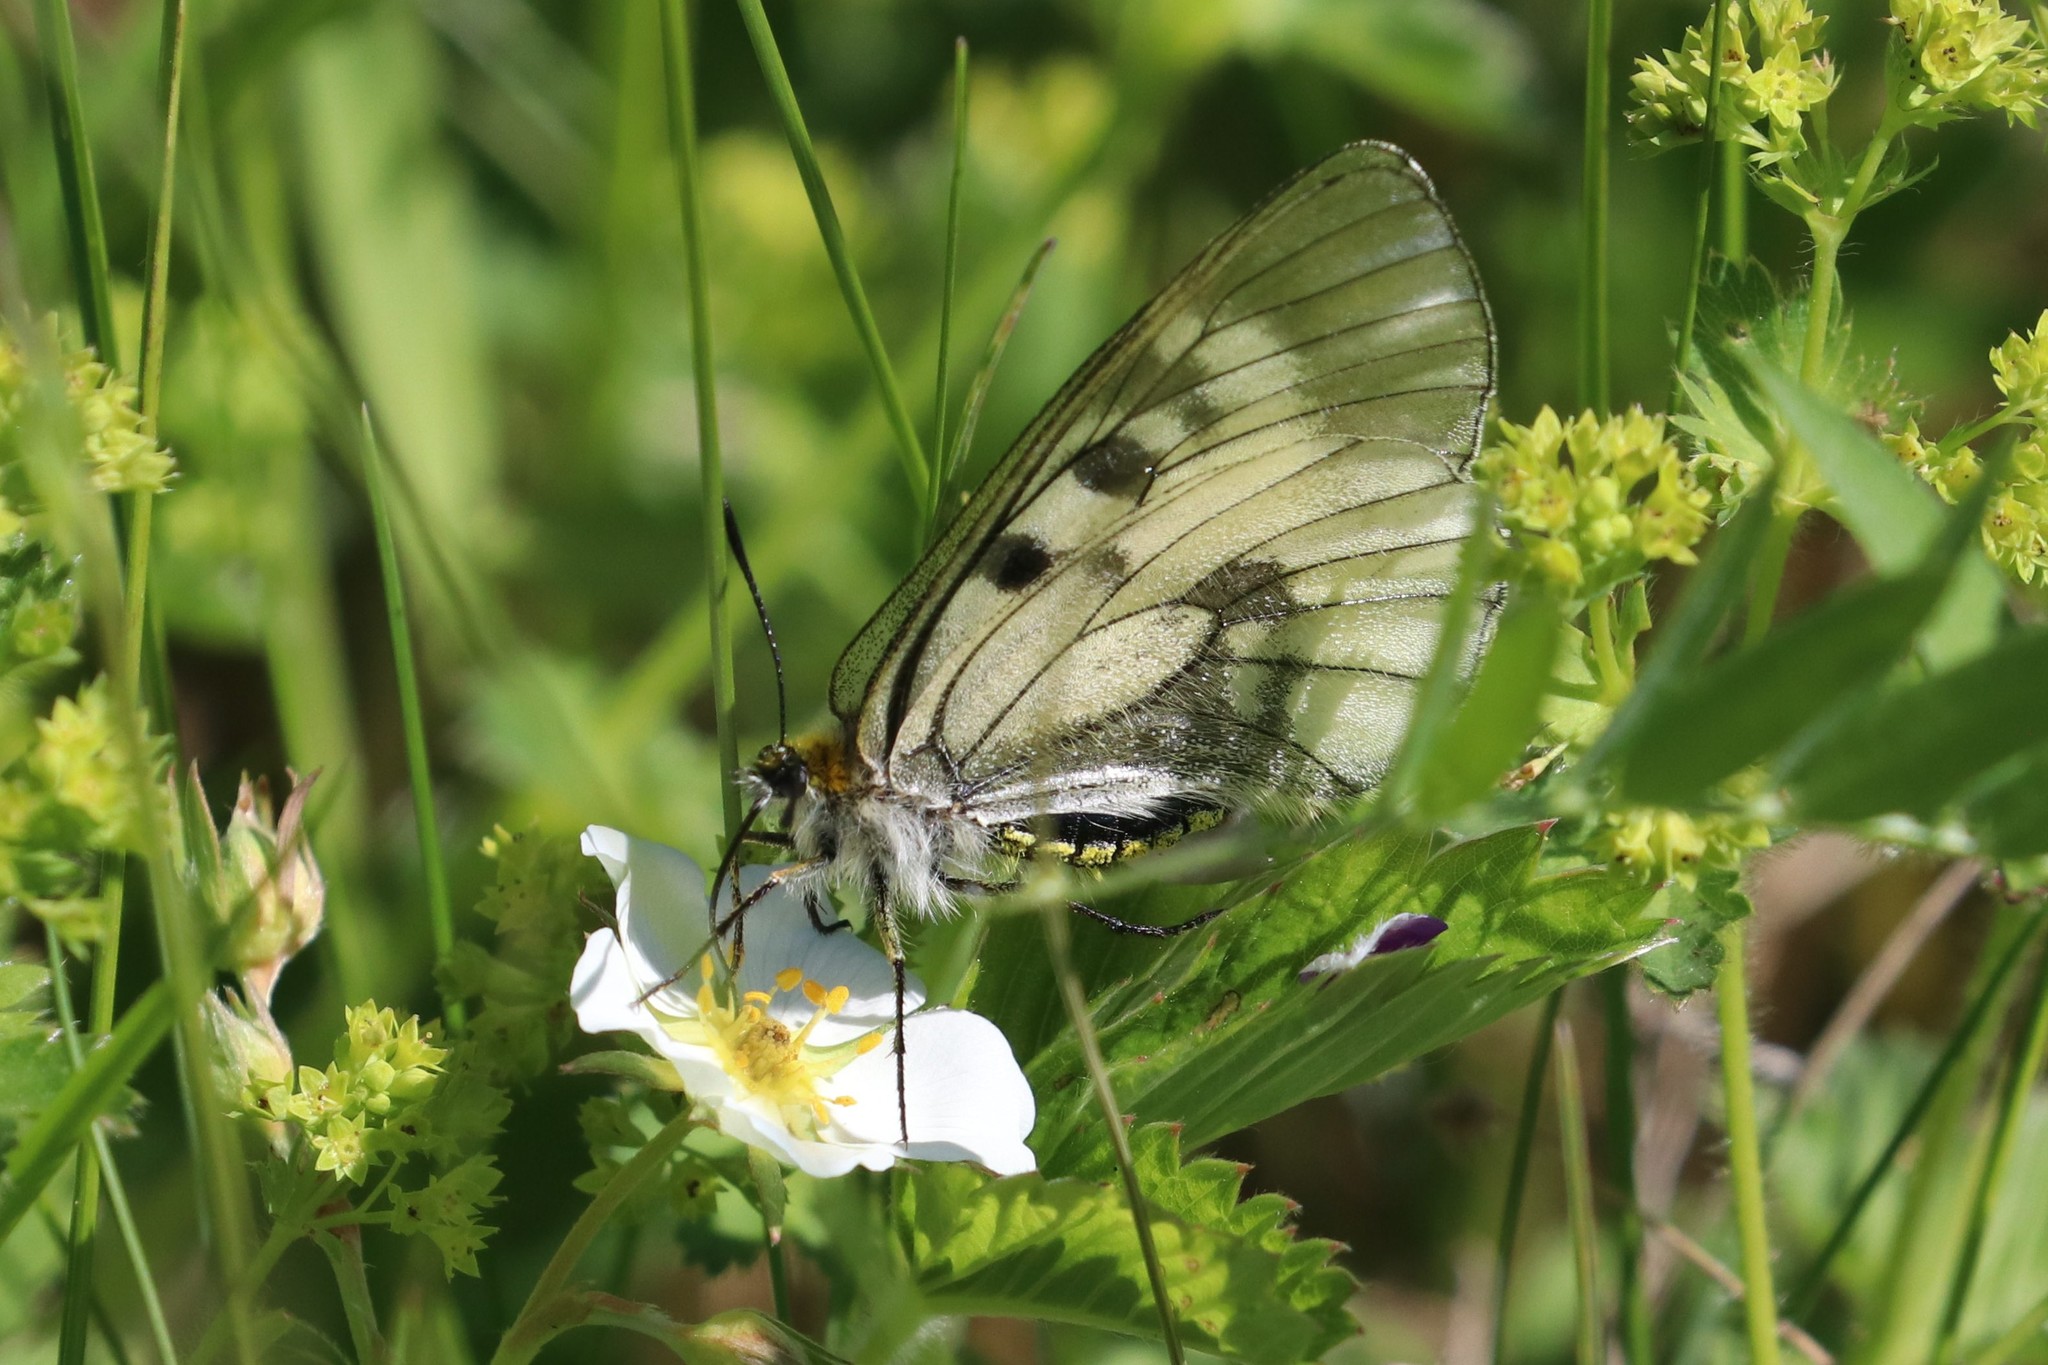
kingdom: Animalia
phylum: Arthropoda
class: Insecta
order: Lepidoptera
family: Papilionidae
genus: Parnassius
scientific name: Parnassius mnemosyne
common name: Clouded apollo
